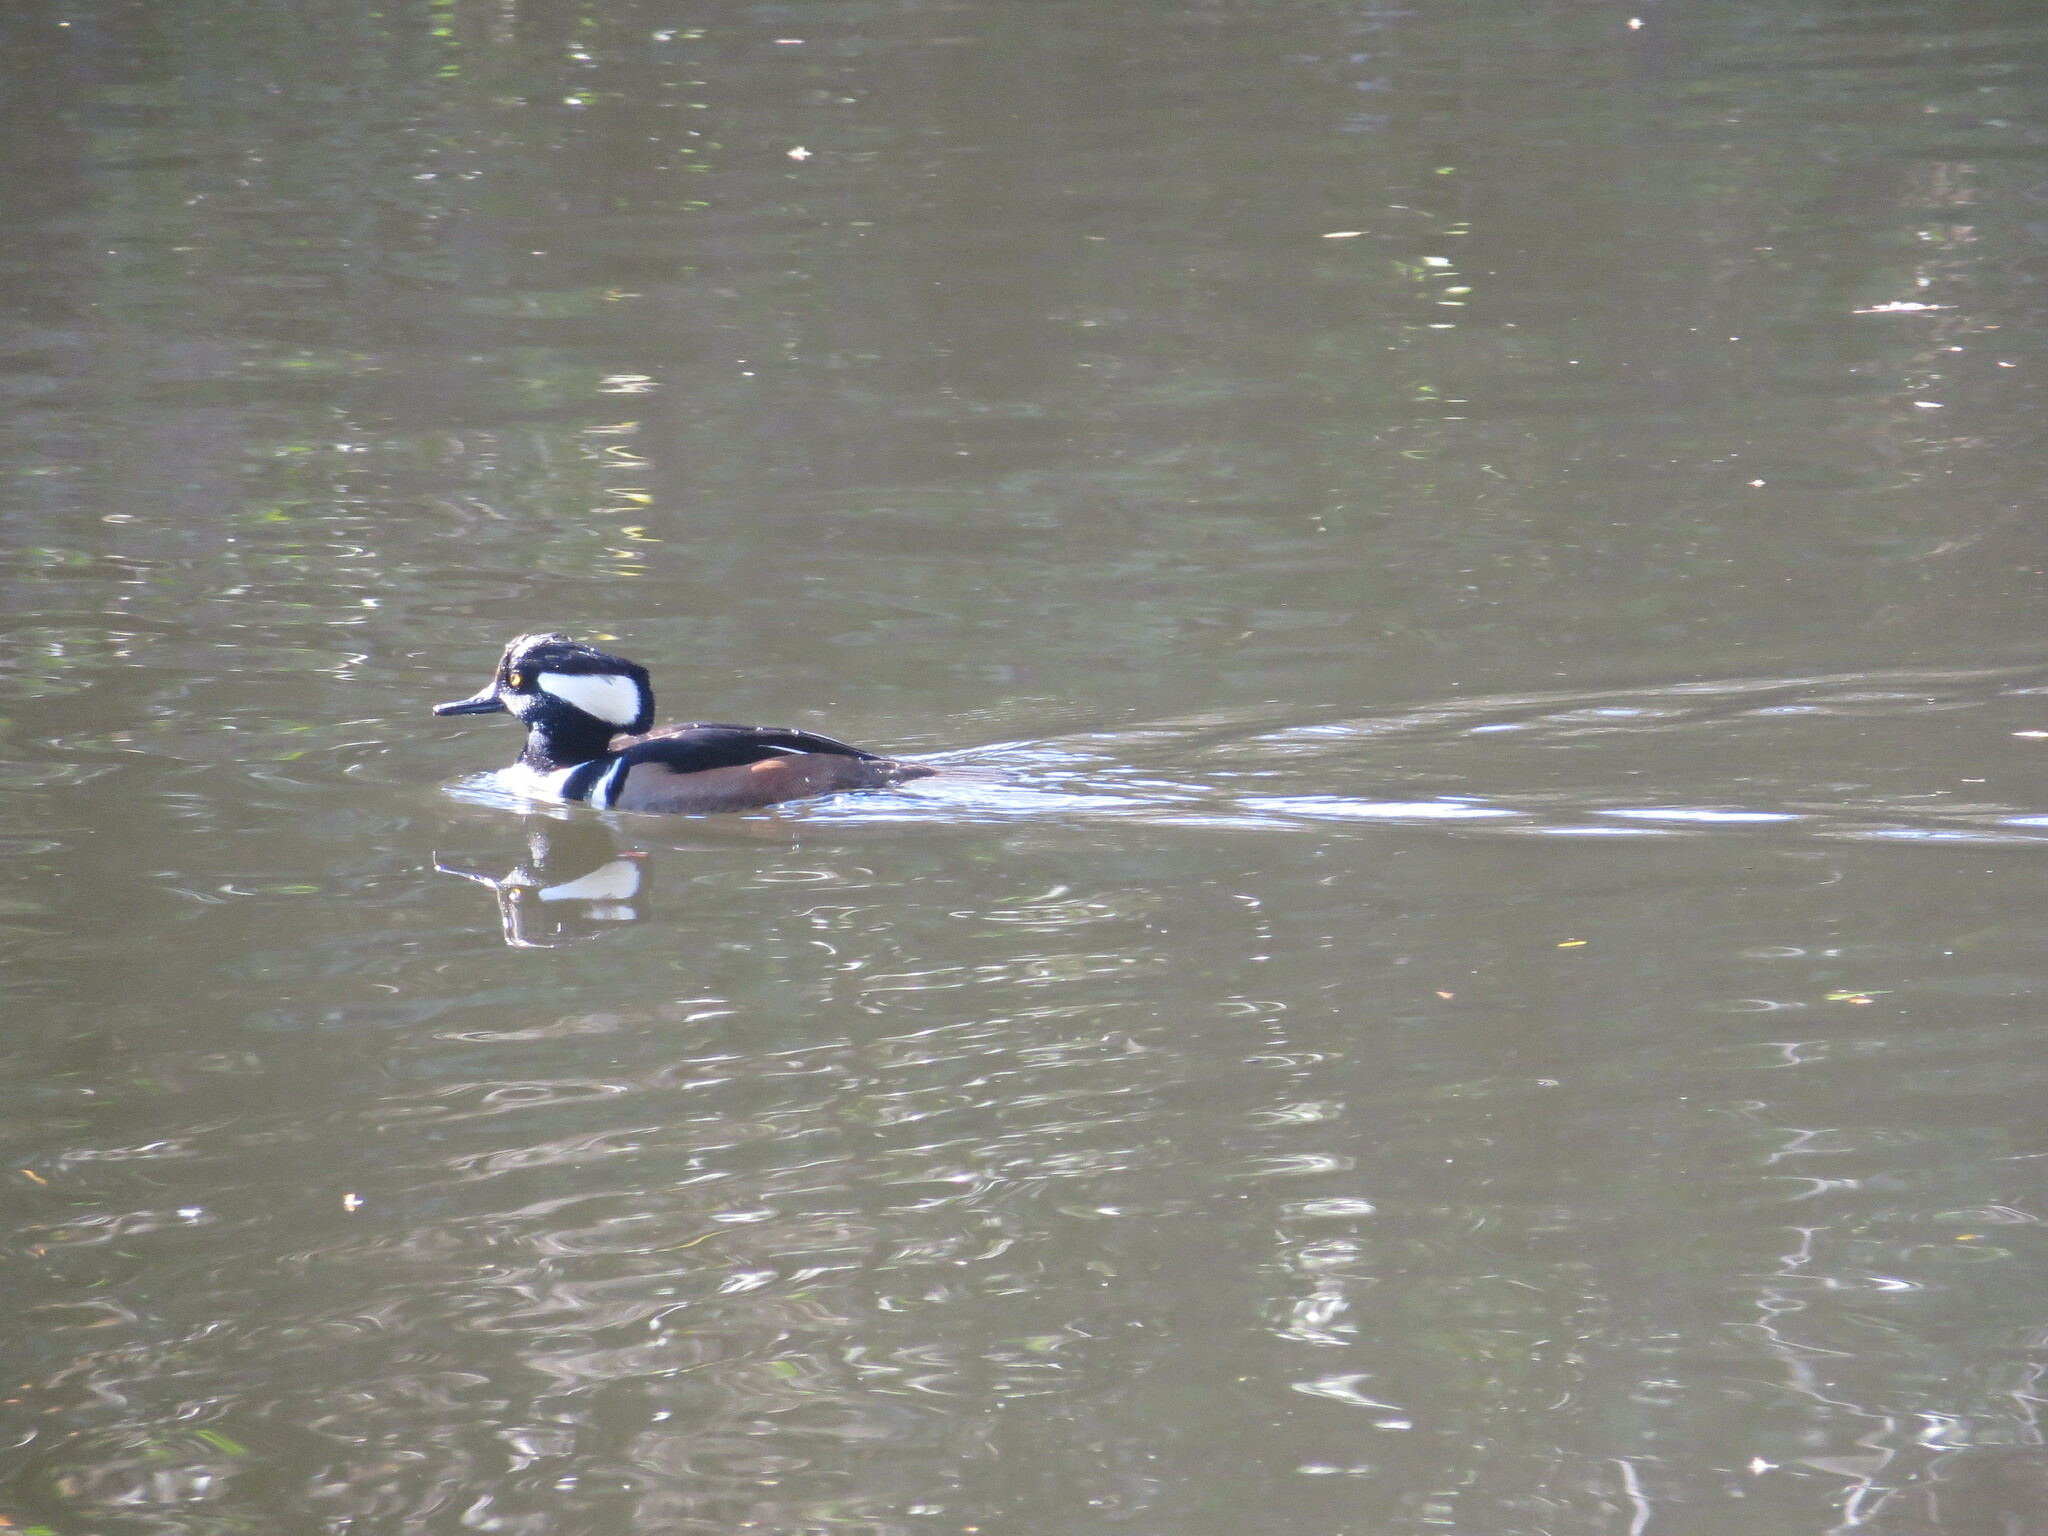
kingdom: Animalia
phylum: Chordata
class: Aves
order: Anseriformes
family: Anatidae
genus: Lophodytes
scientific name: Lophodytes cucullatus
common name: Hooded merganser
